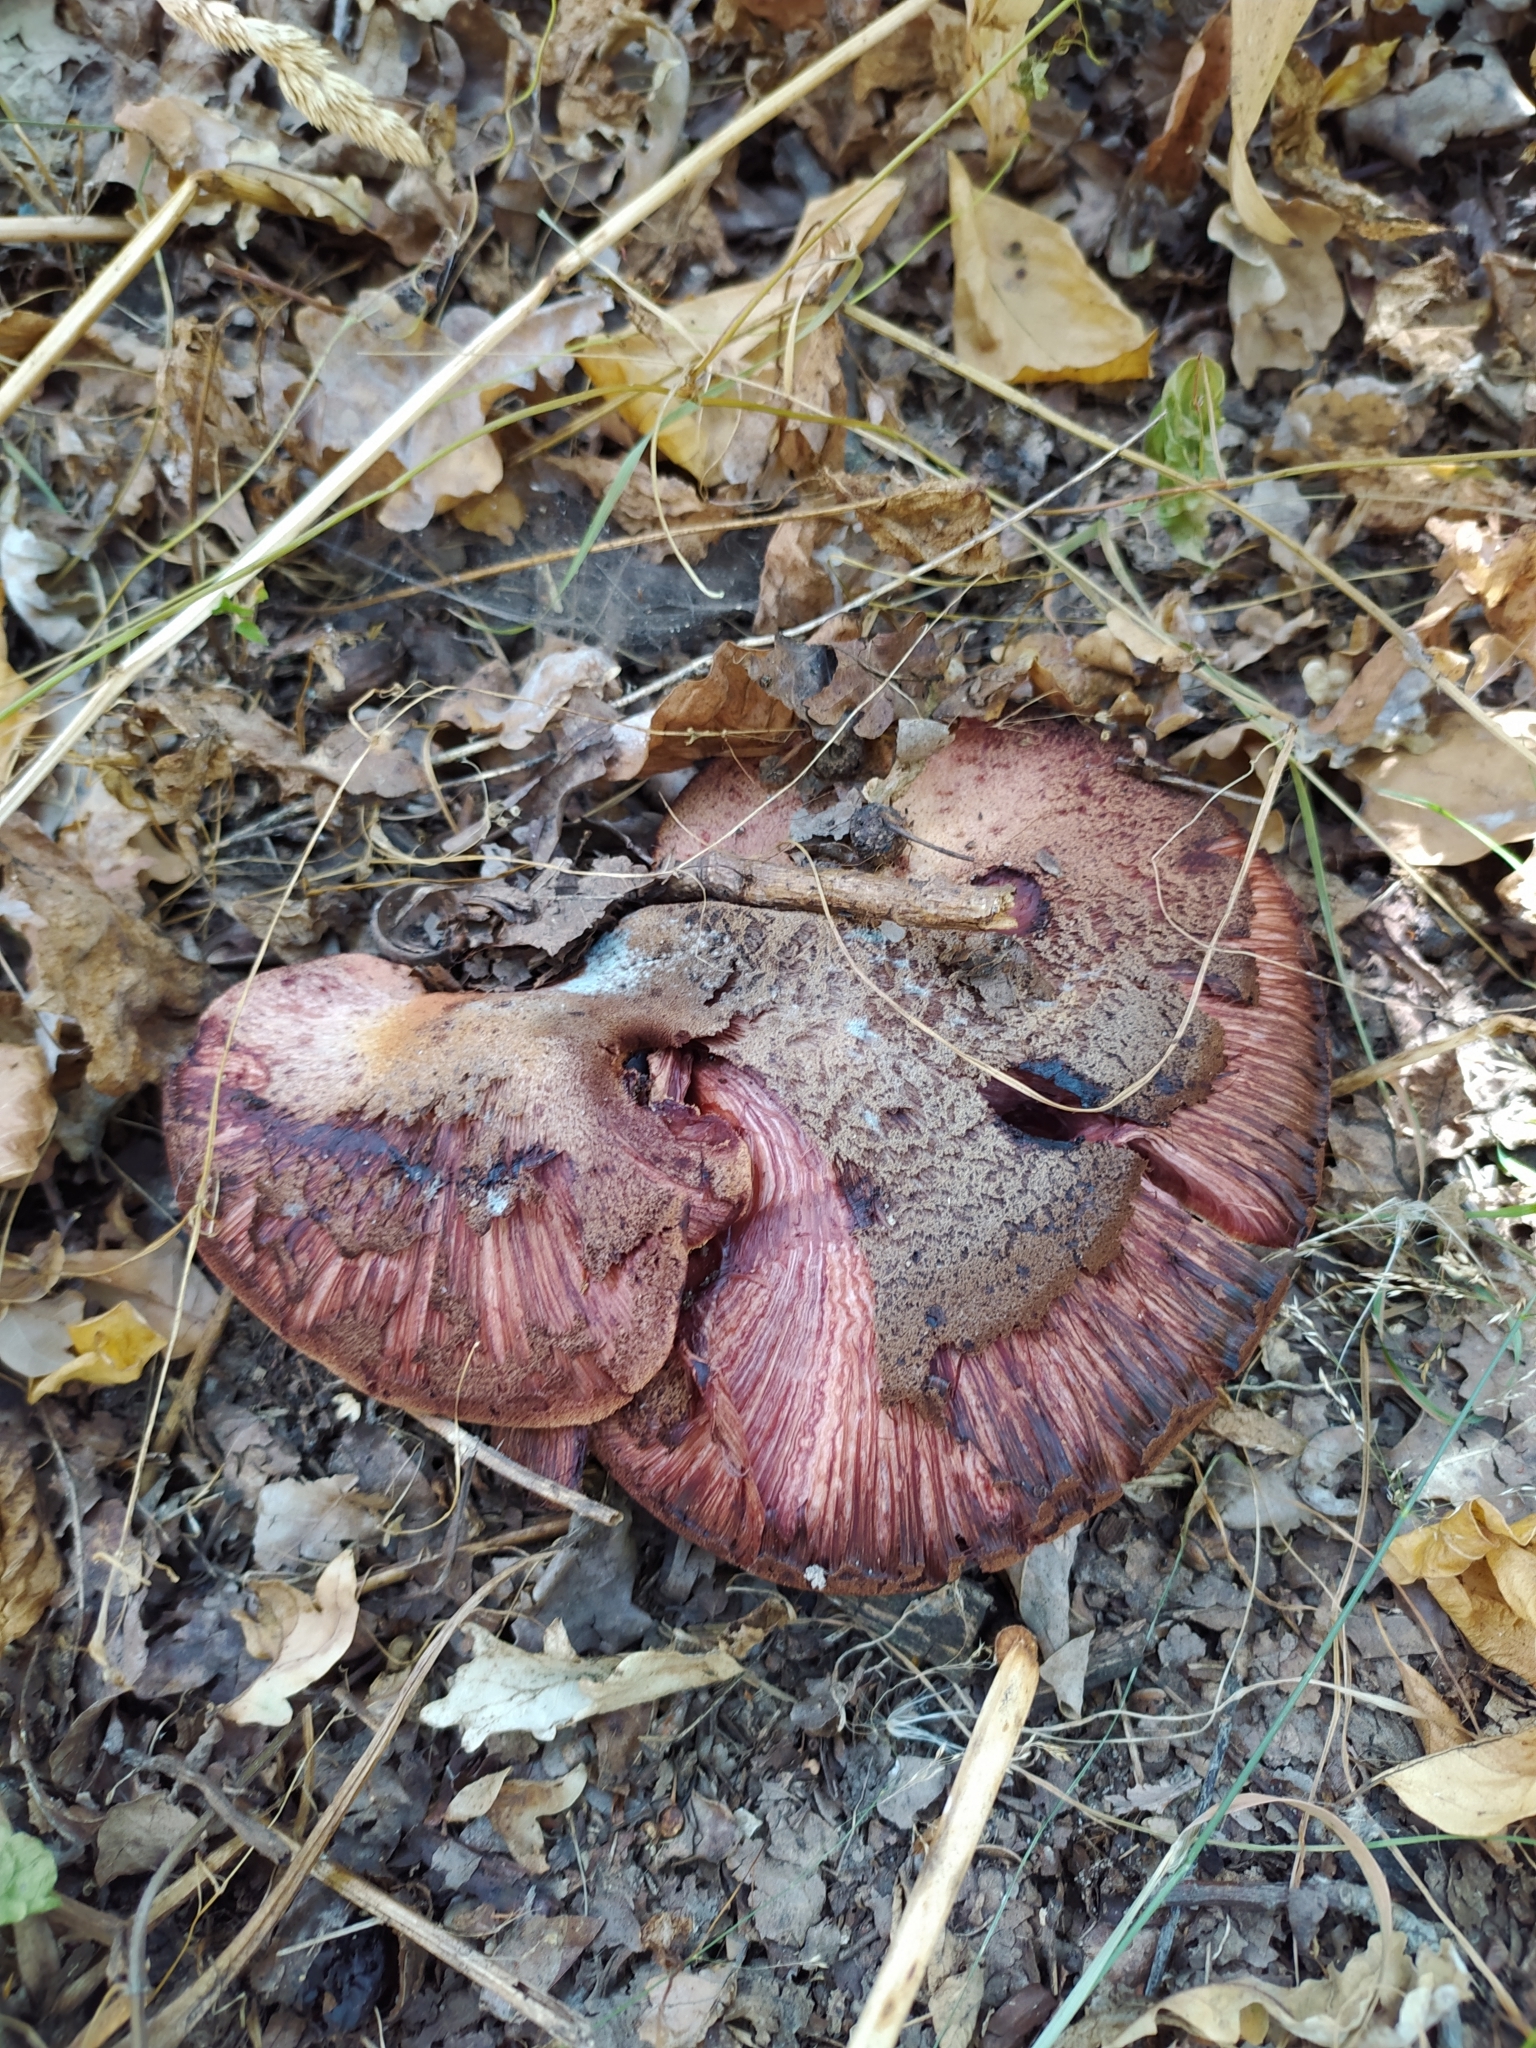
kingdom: Fungi
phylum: Basidiomycota
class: Agaricomycetes
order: Agaricales
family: Fistulinaceae
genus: Fistulina
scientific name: Fistulina hepatica
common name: Beef-steak fungus
